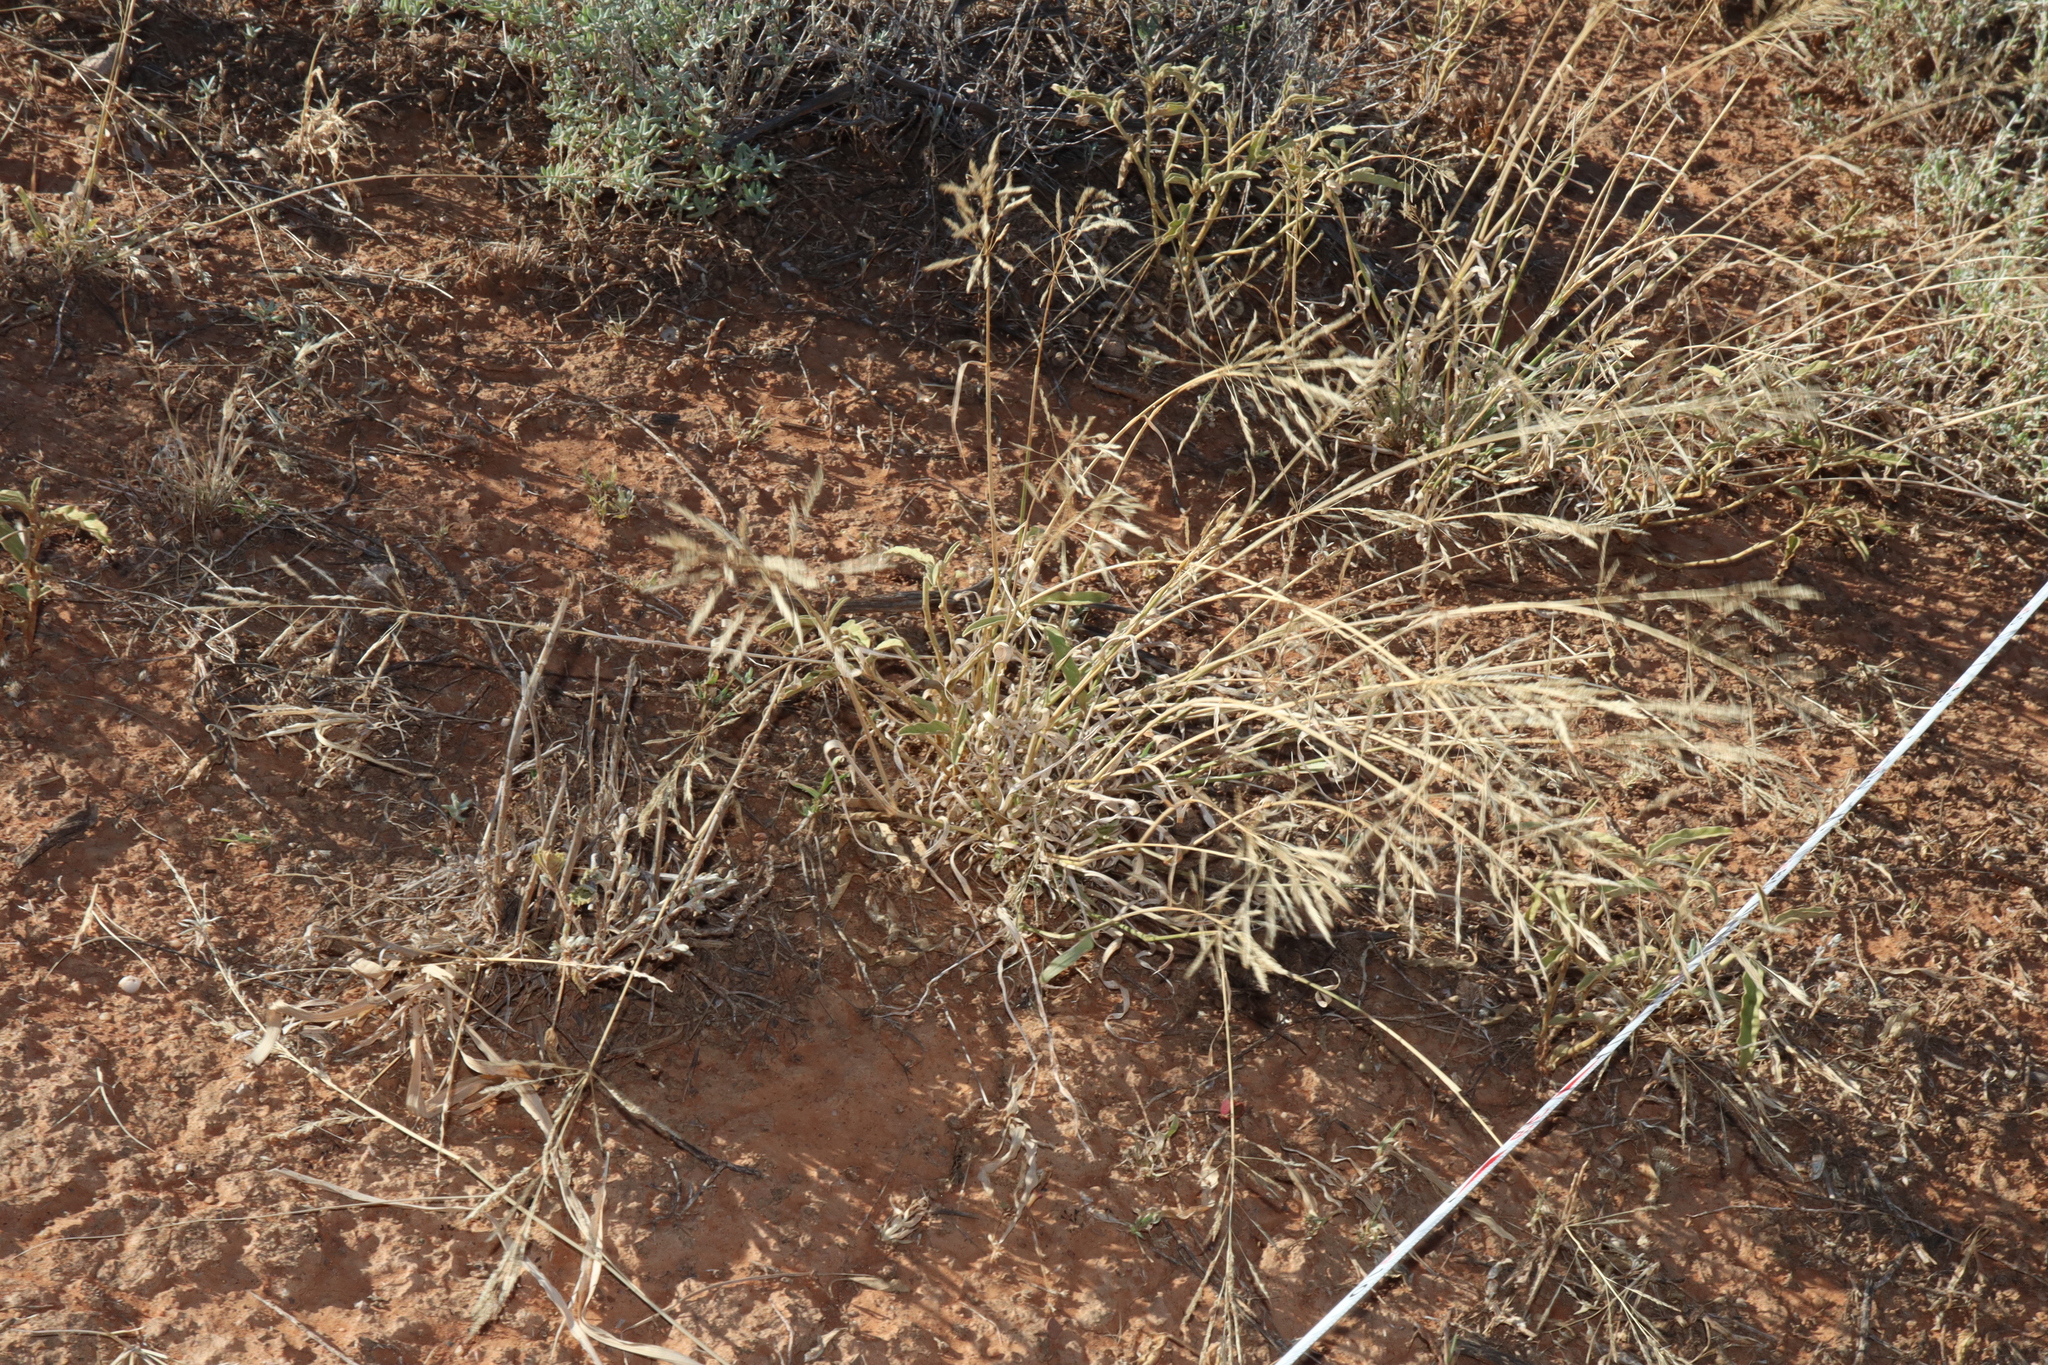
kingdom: Plantae
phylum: Tracheophyta
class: Liliopsida
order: Poales
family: Poaceae
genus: Sporobolus
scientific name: Sporobolus actinocladus
